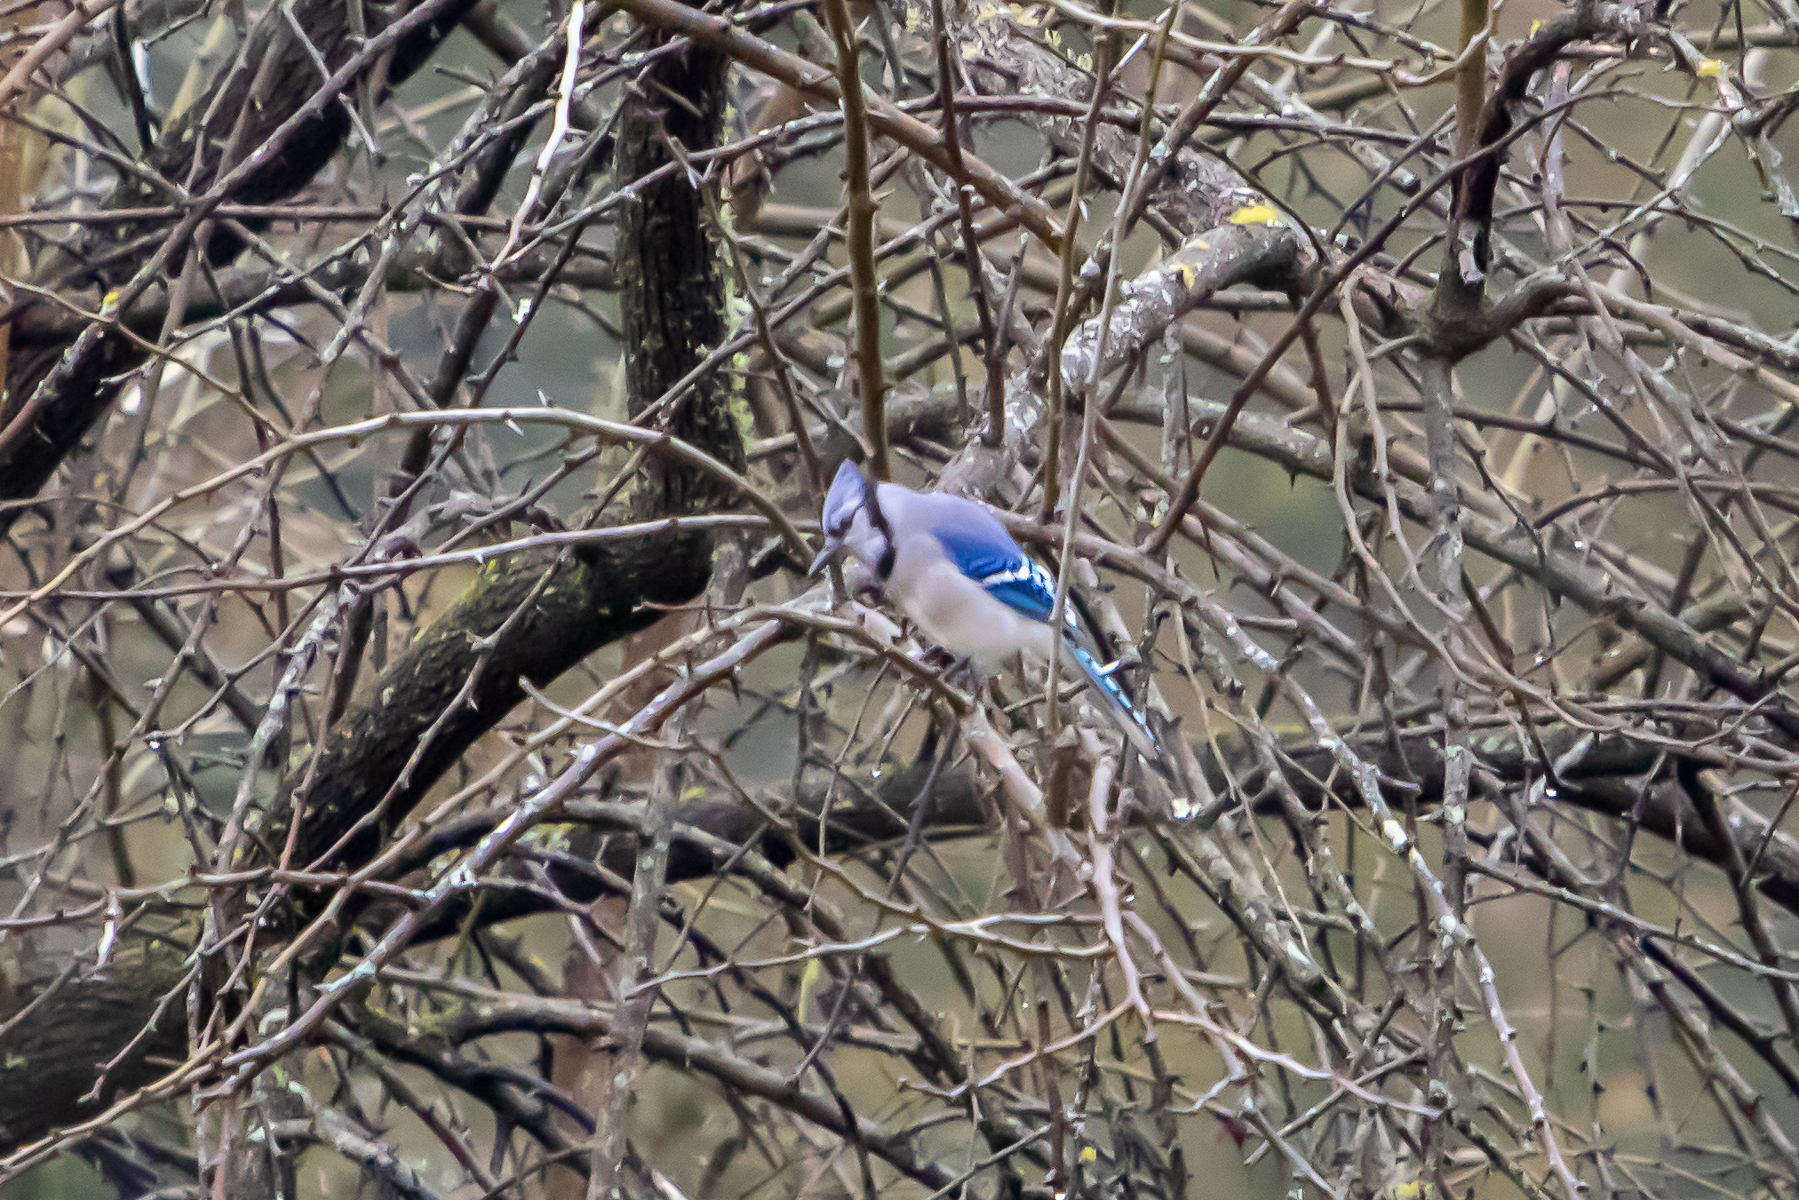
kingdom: Animalia
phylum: Chordata
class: Aves
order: Passeriformes
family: Corvidae
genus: Cyanocitta
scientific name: Cyanocitta cristata
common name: Blue jay
